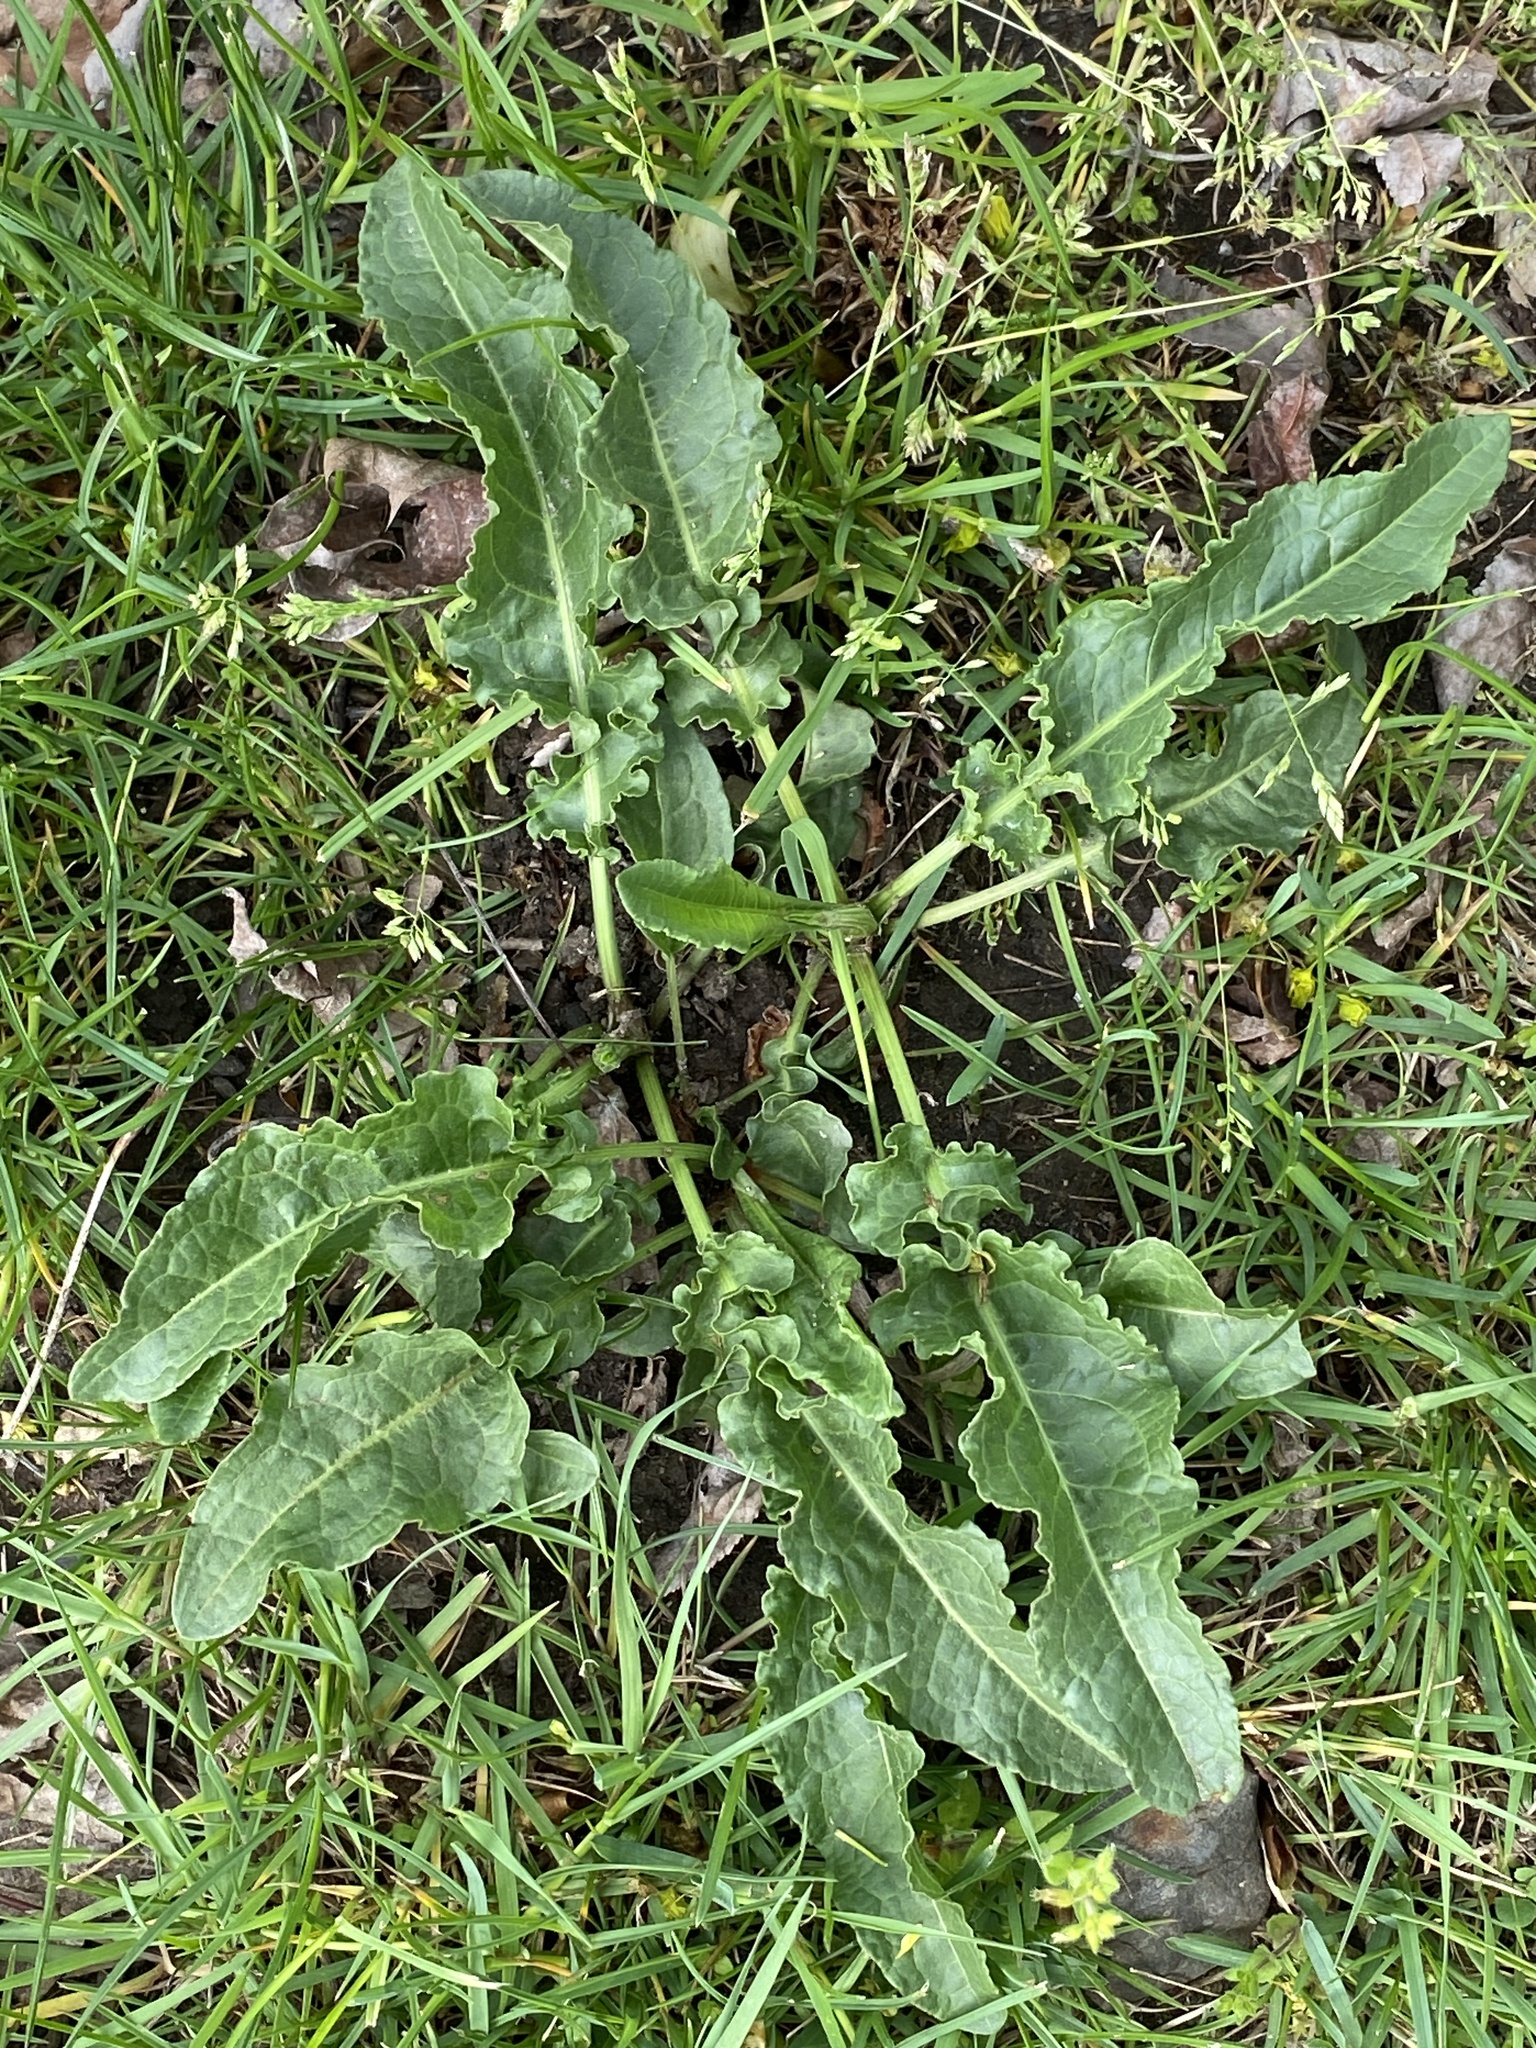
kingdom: Plantae
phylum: Tracheophyta
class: Magnoliopsida
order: Caryophyllales
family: Polygonaceae
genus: Rumex
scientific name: Rumex crispus
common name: Curled dock
